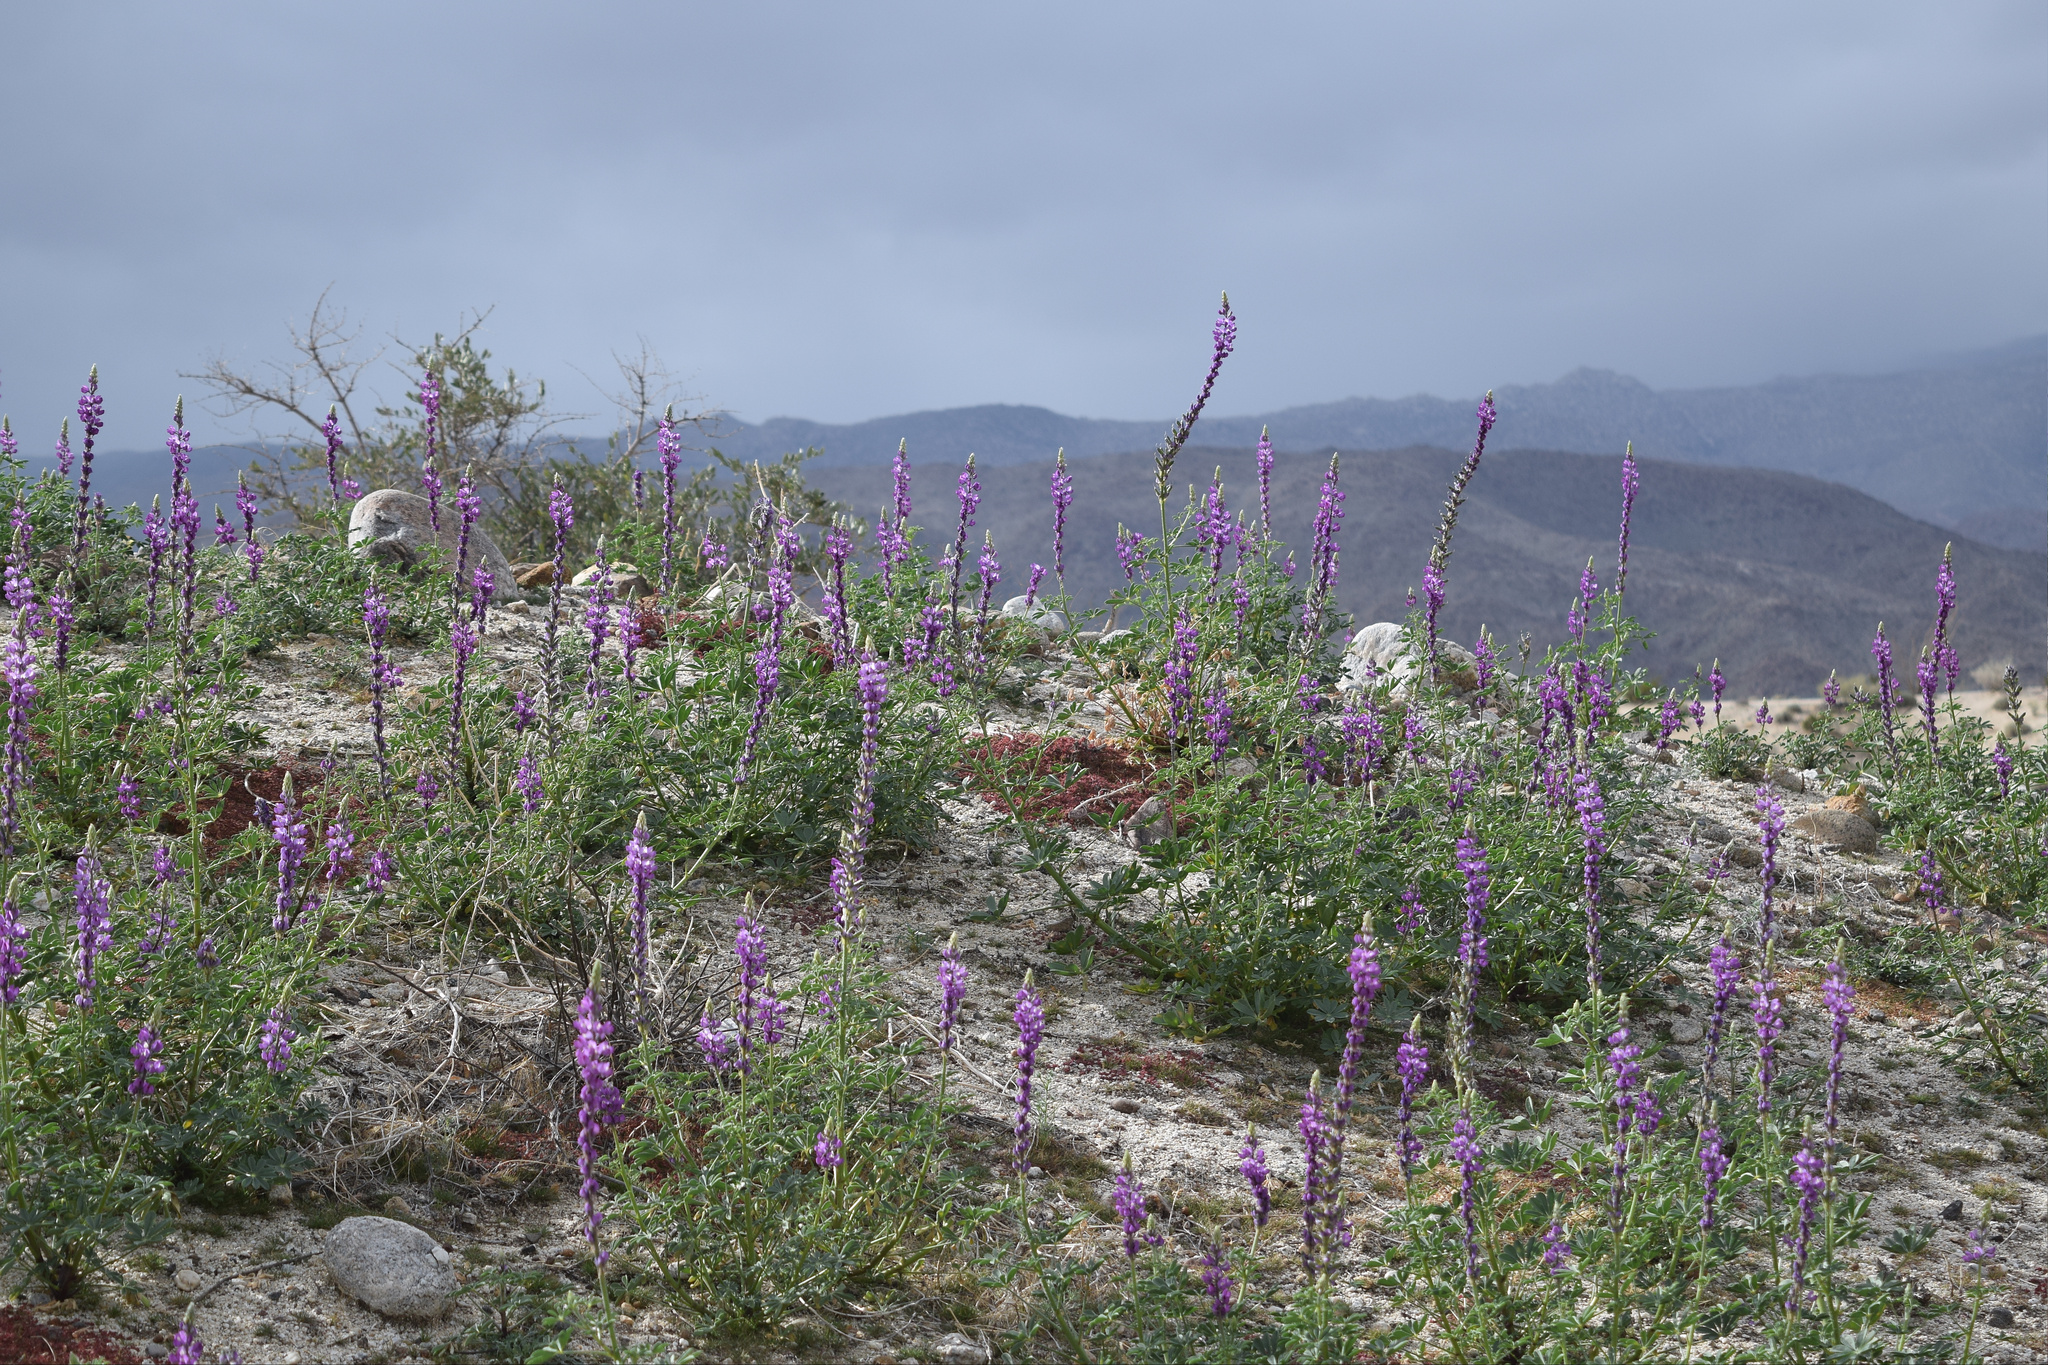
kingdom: Plantae
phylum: Tracheophyta
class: Magnoliopsida
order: Fabales
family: Fabaceae
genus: Lupinus
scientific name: Lupinus arizonicus
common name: Arizona lupine
